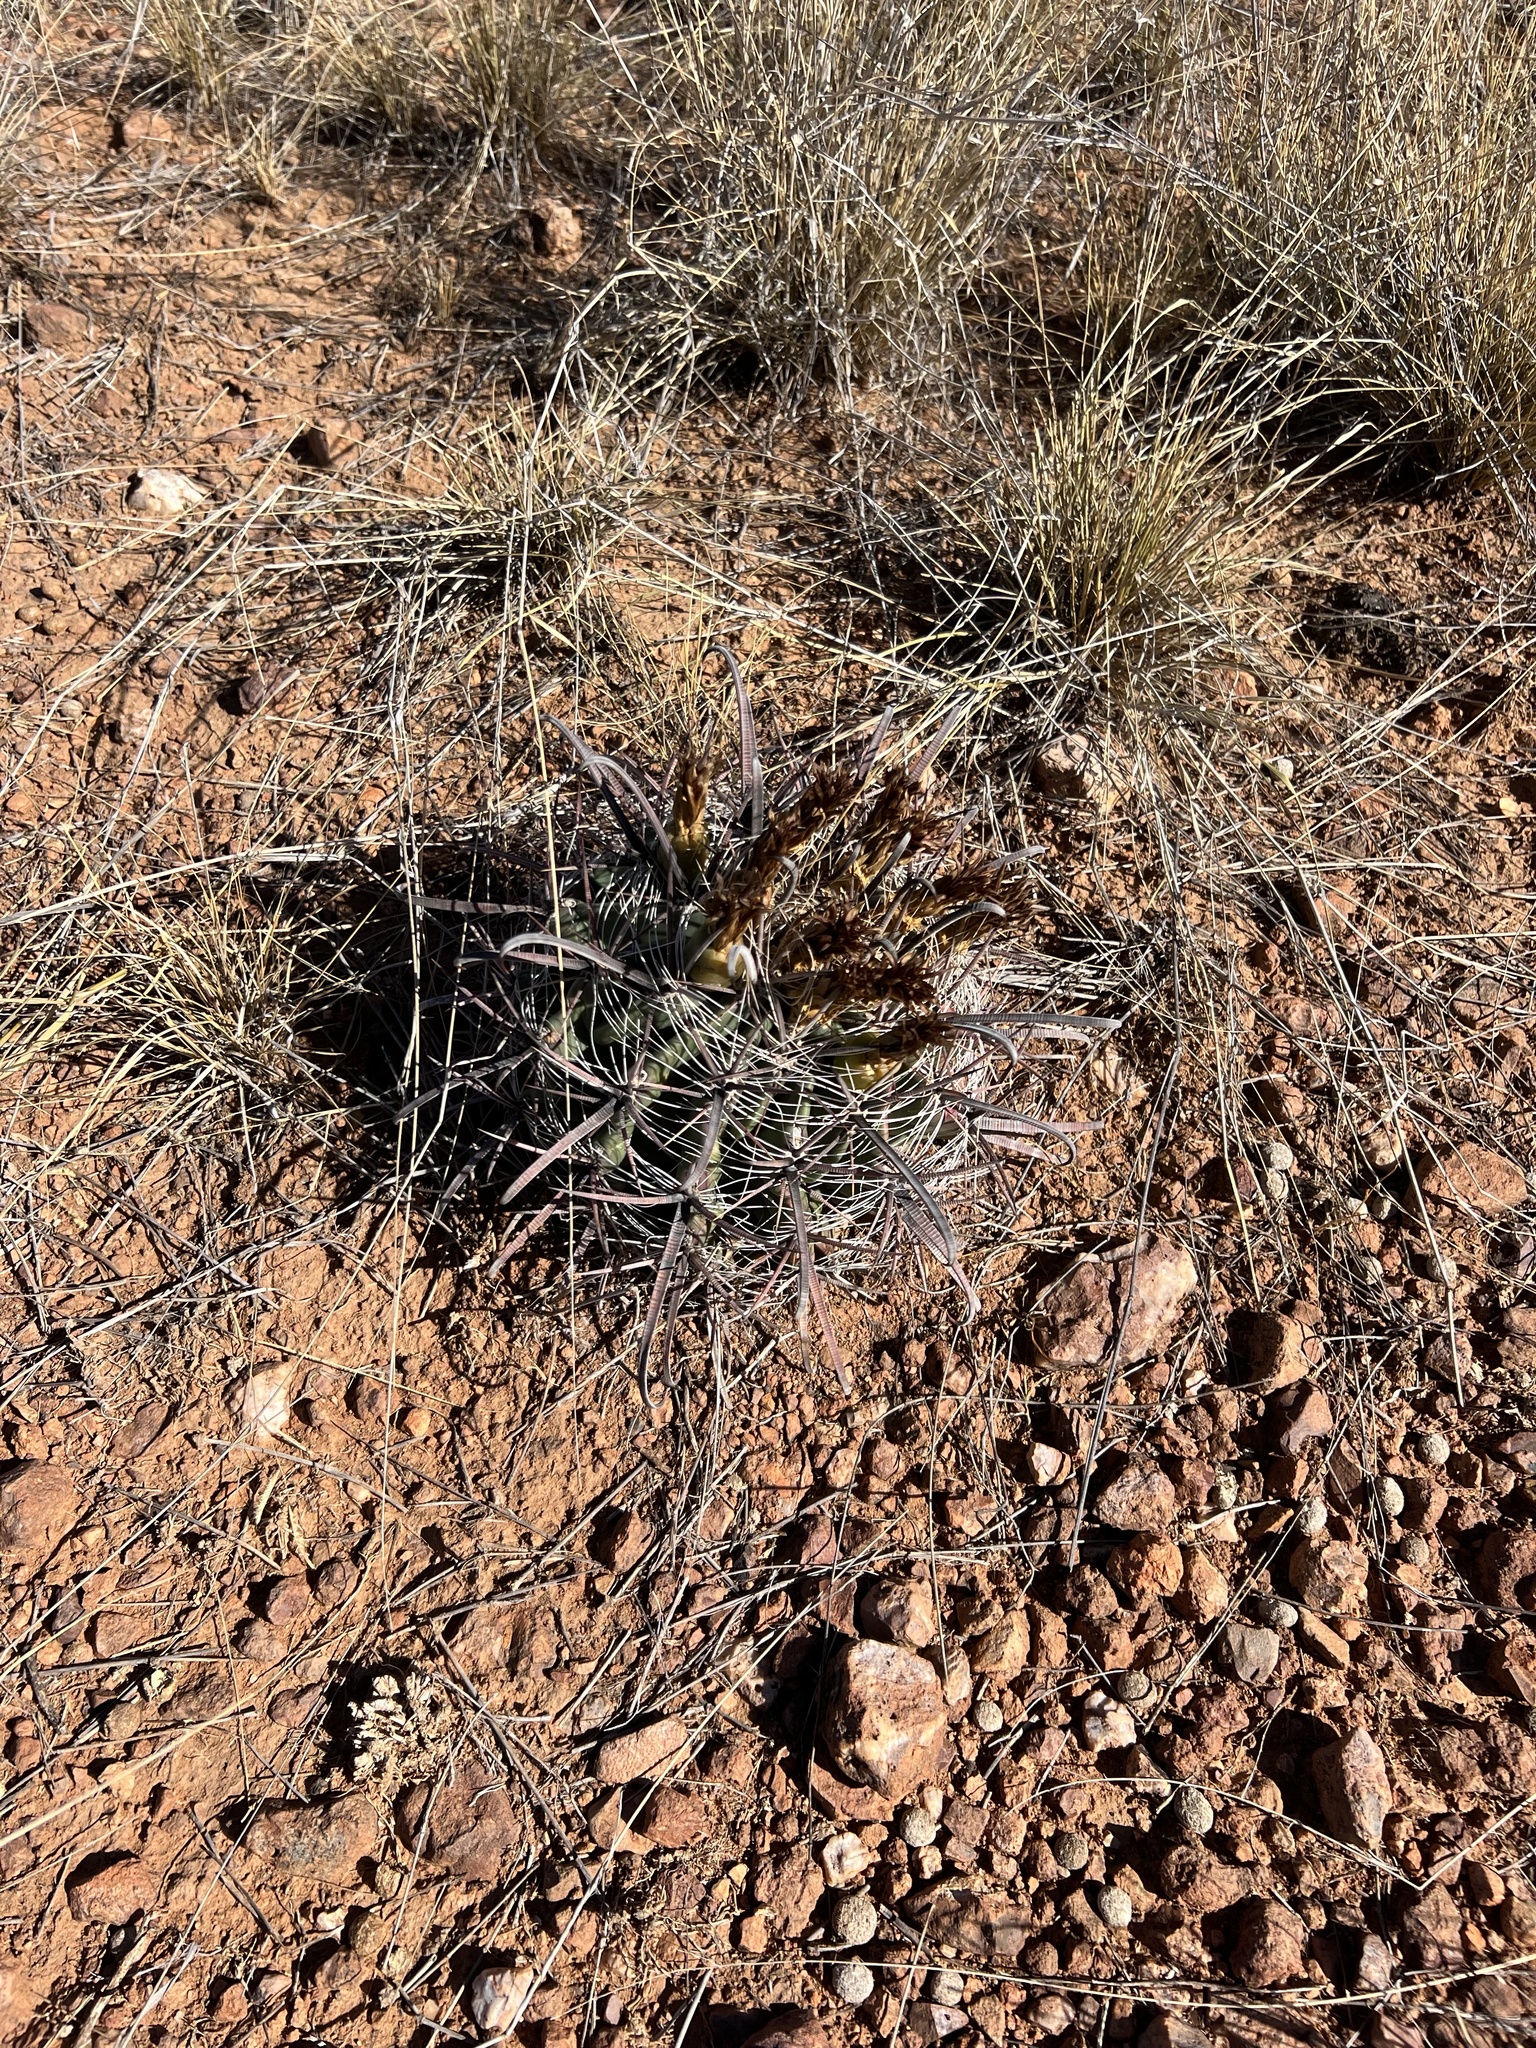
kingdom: Plantae
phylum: Tracheophyta
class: Magnoliopsida
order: Caryophyllales
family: Cactaceae
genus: Ferocactus
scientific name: Ferocactus wislizeni
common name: Candy barrel cactus
